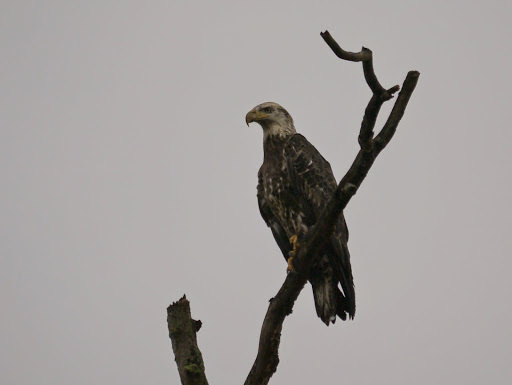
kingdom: Animalia
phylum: Chordata
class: Aves
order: Accipitriformes
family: Accipitridae
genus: Haliaeetus
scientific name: Haliaeetus leucocephalus
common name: Bald eagle
